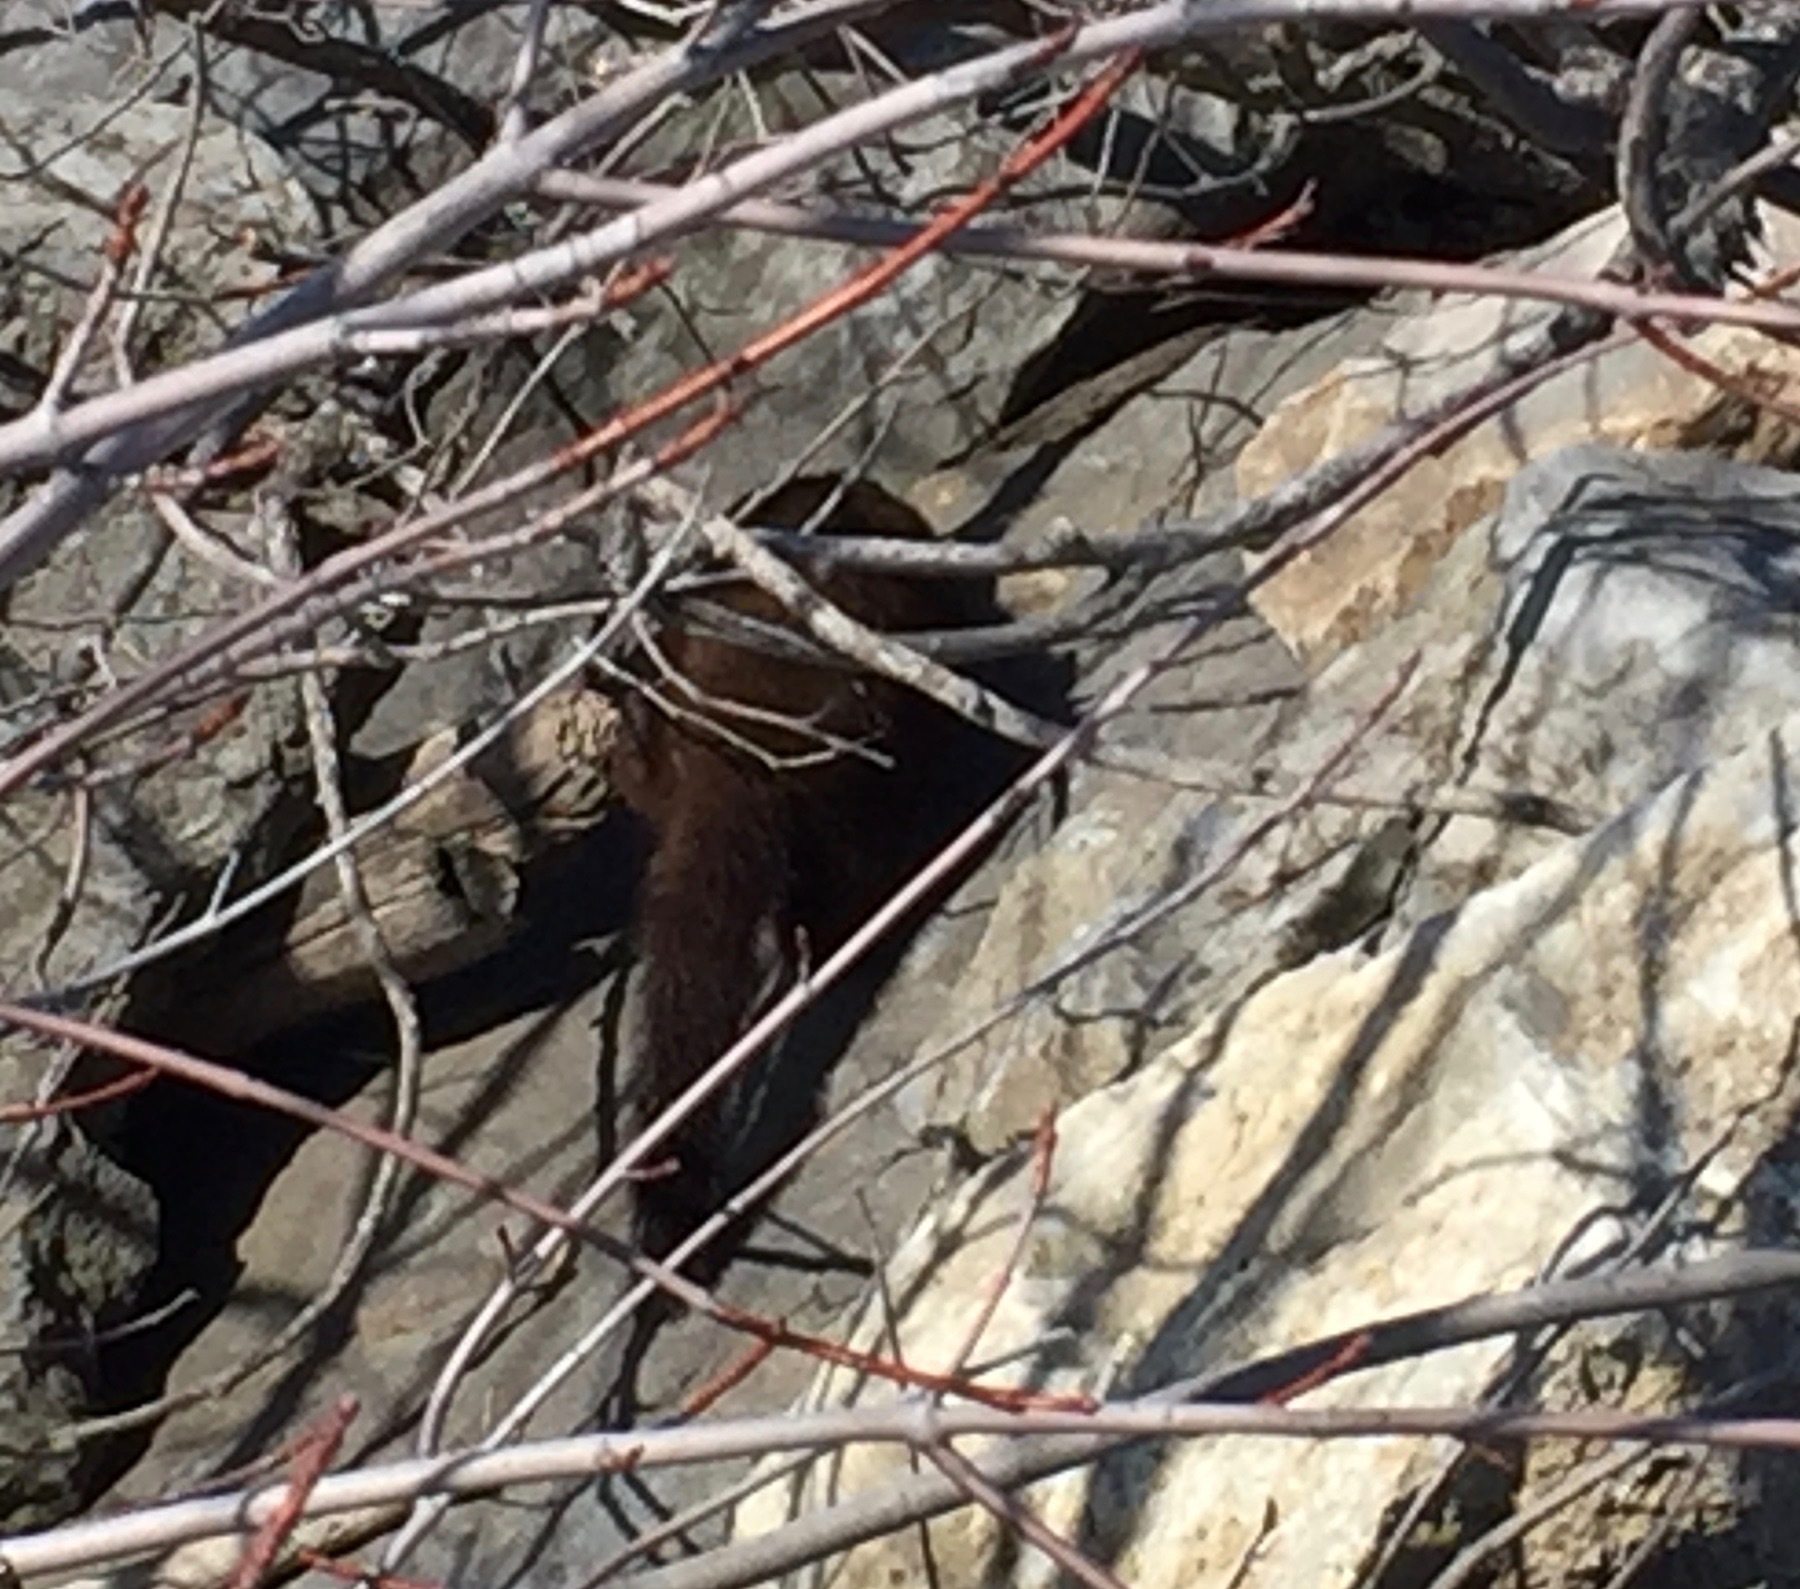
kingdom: Animalia
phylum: Chordata
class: Mammalia
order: Carnivora
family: Mustelidae
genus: Mustela
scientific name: Mustela
